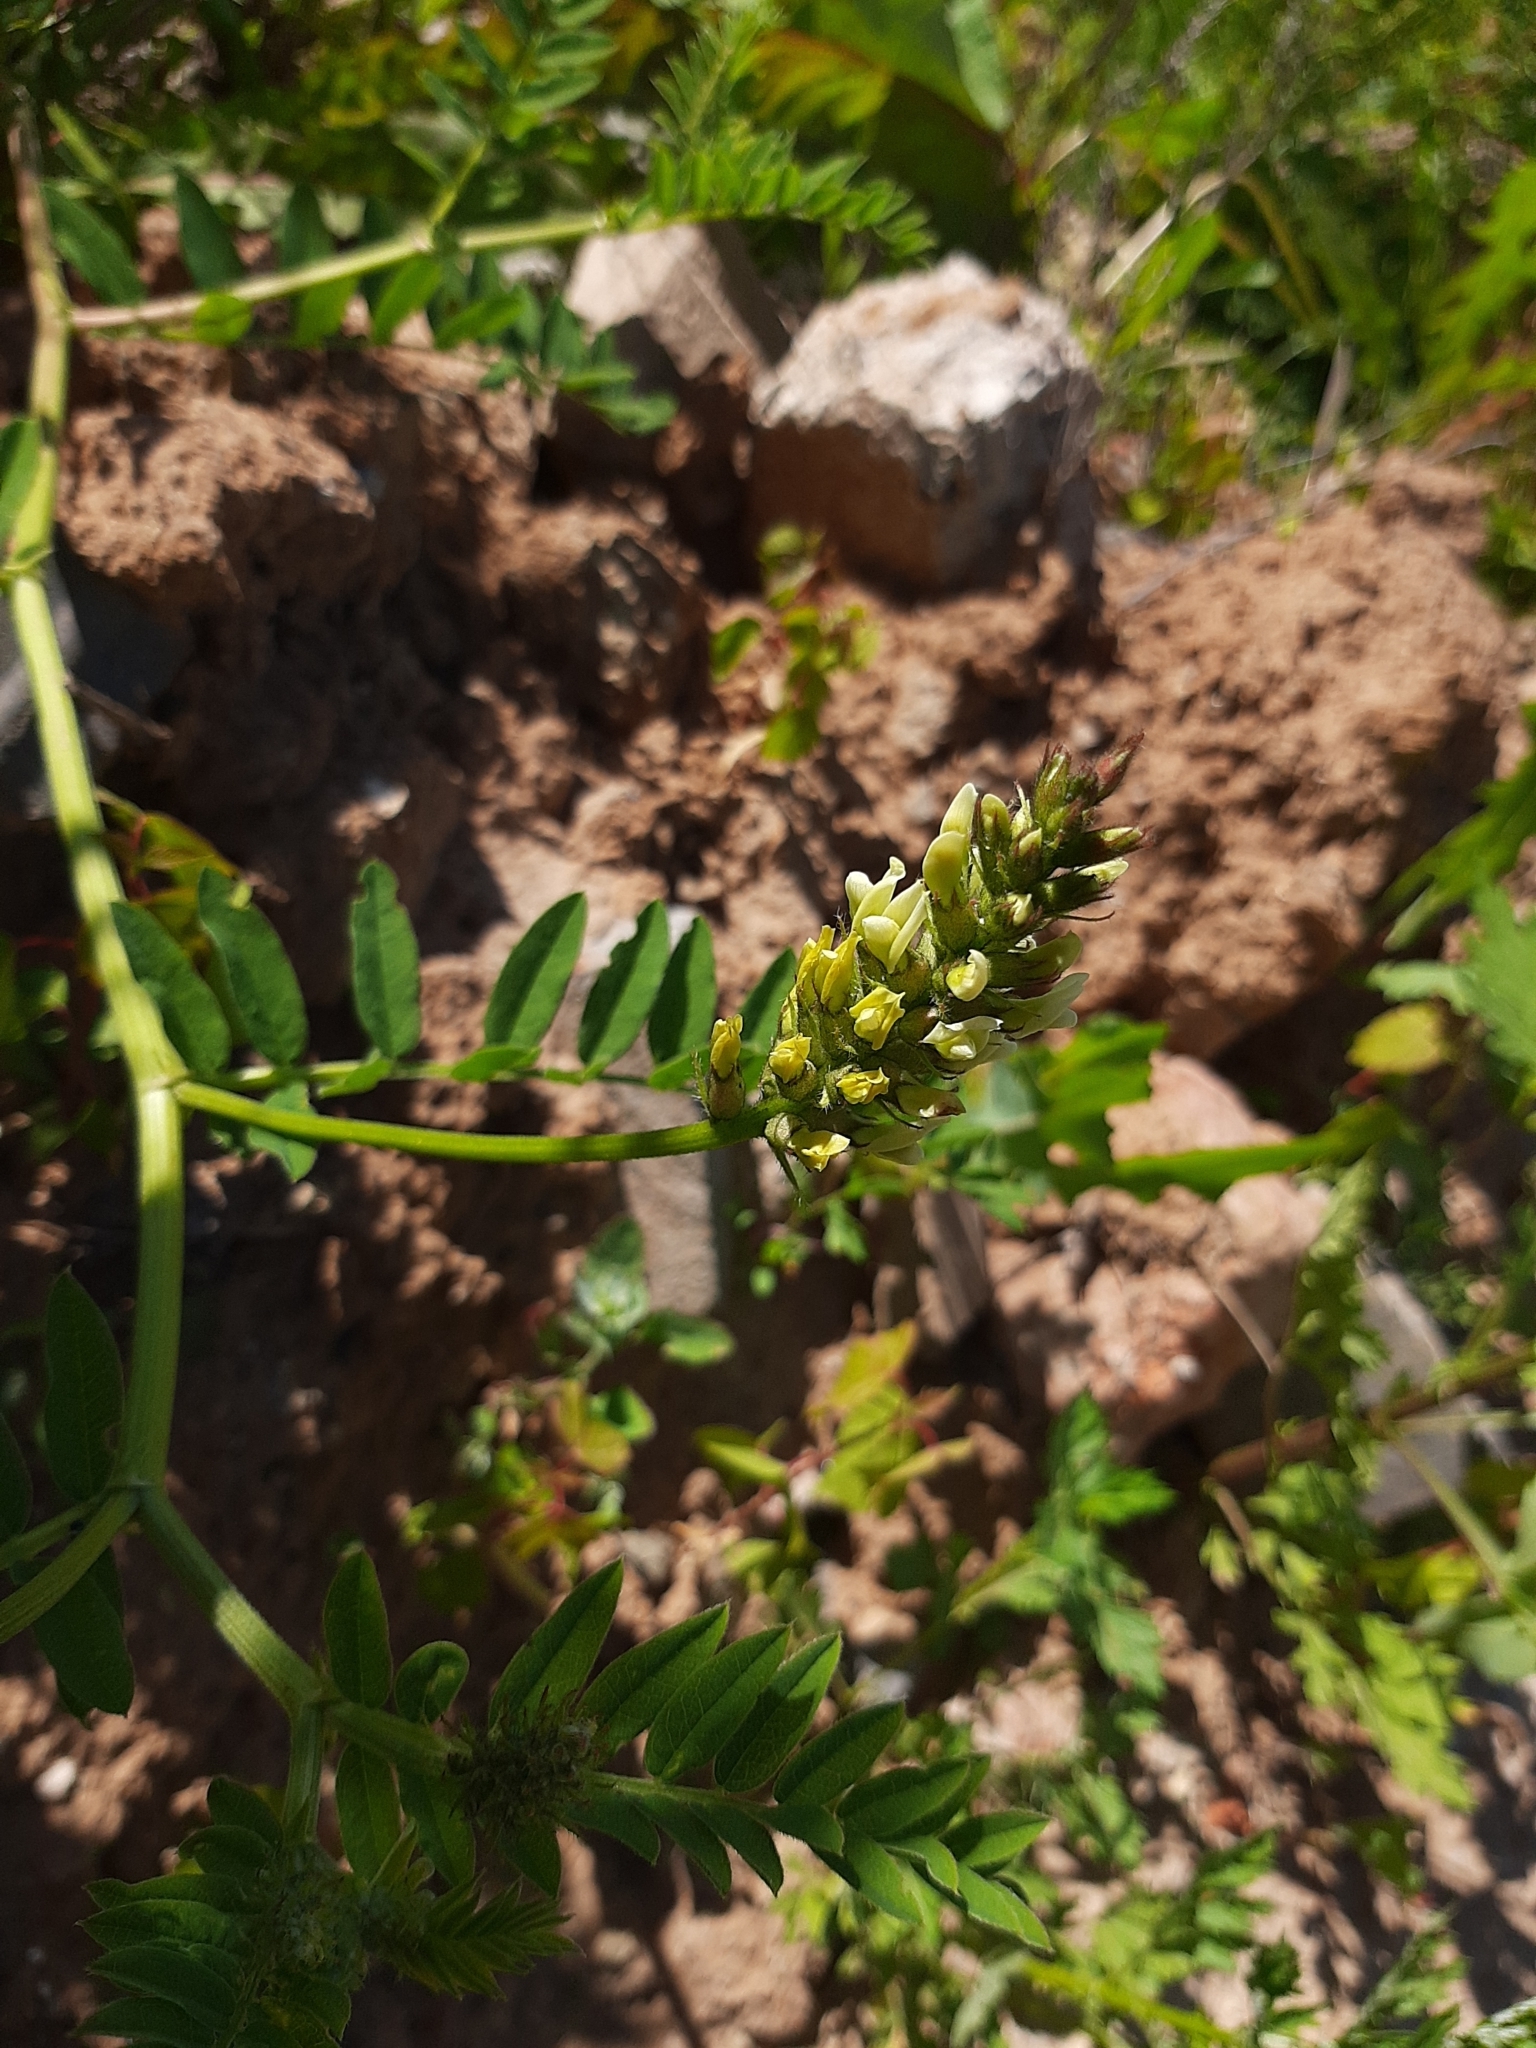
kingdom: Plantae
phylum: Tracheophyta
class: Magnoliopsida
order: Fabales
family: Fabaceae
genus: Astragalus
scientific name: Astragalus cicer
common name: Chick-pea milk-vetch
